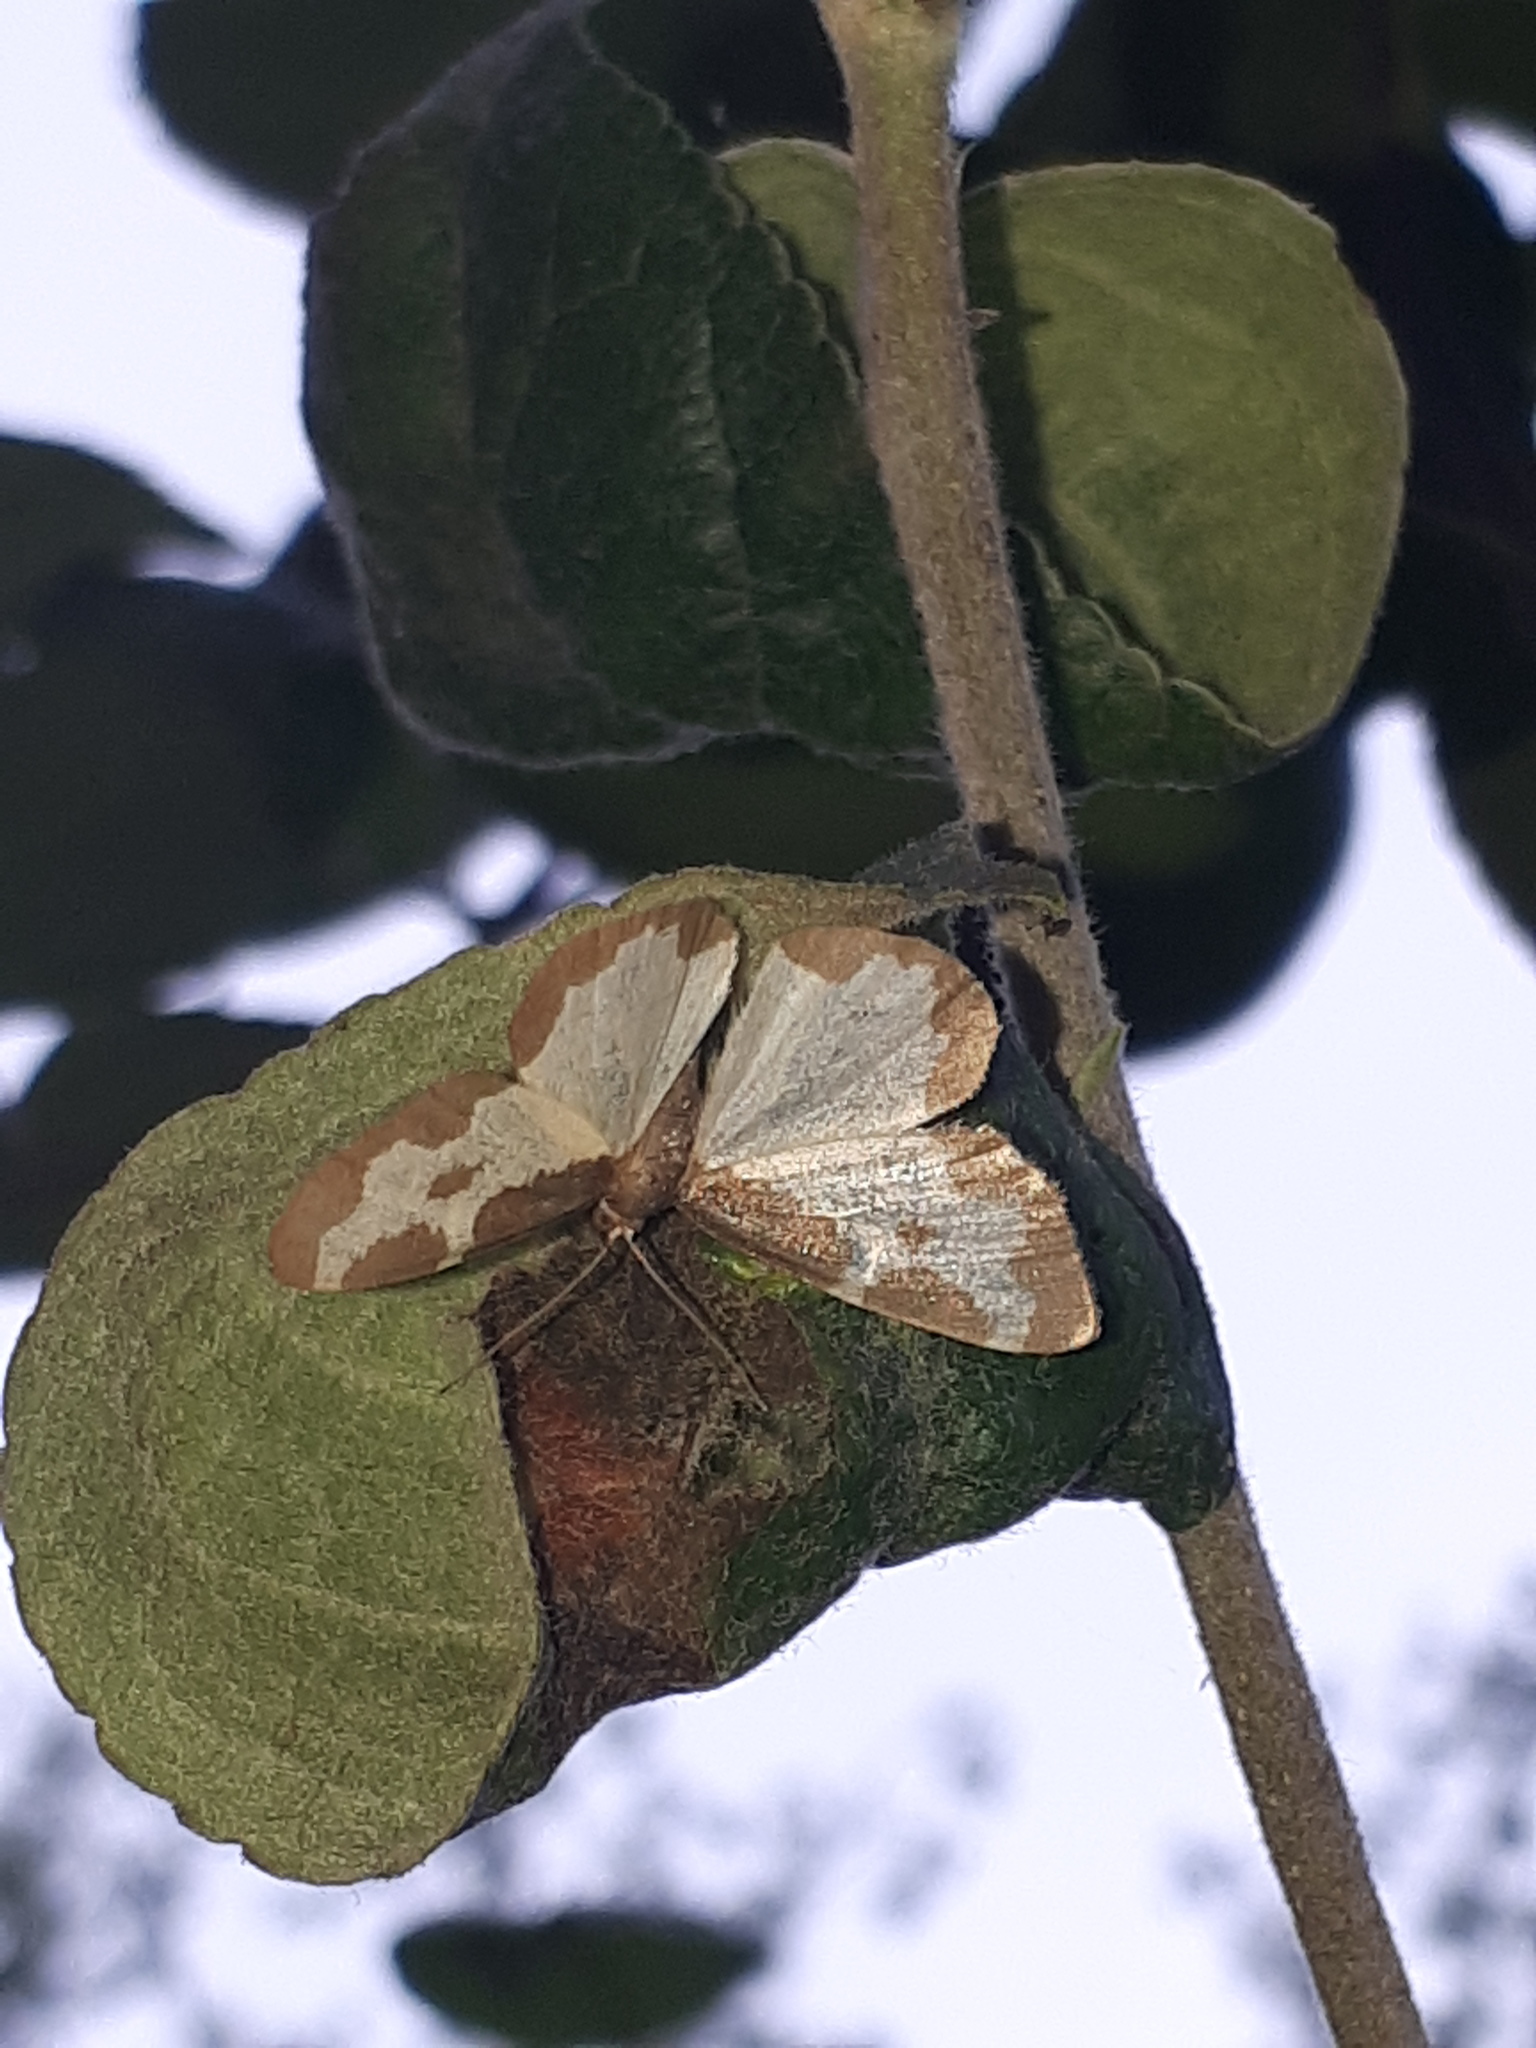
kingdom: Animalia
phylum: Arthropoda
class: Insecta
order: Lepidoptera
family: Geometridae
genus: Lomaspilis
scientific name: Lomaspilis marginata
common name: Clouded border
